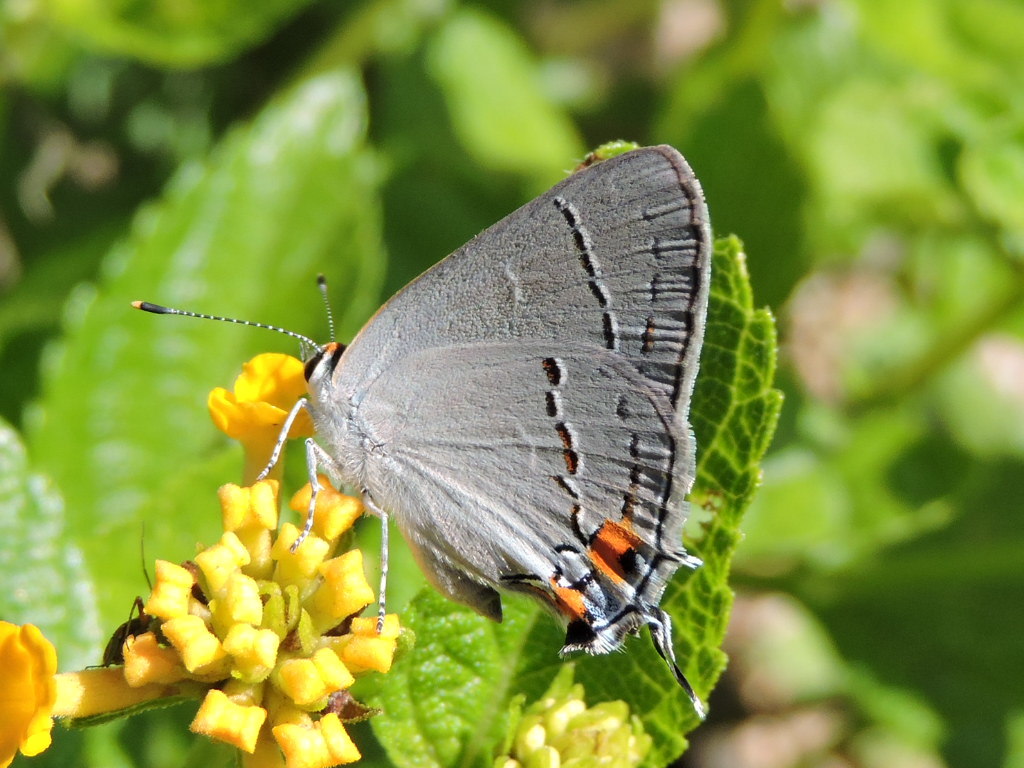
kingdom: Animalia
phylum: Arthropoda
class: Insecta
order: Lepidoptera
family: Lycaenidae
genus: Strymon
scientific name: Strymon melinus
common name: Gray hairstreak
